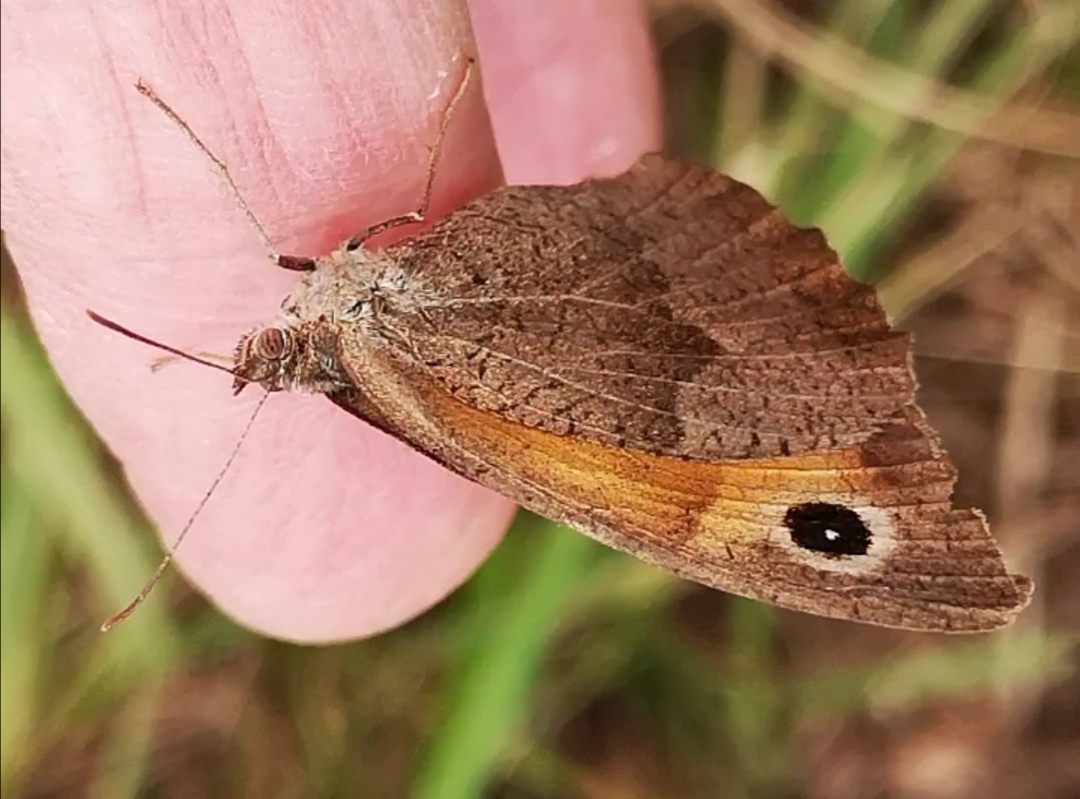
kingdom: Animalia
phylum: Arthropoda
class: Insecta
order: Lepidoptera
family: Nymphalidae
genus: Maniola
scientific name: Maniola jurtina
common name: Meadow brown
